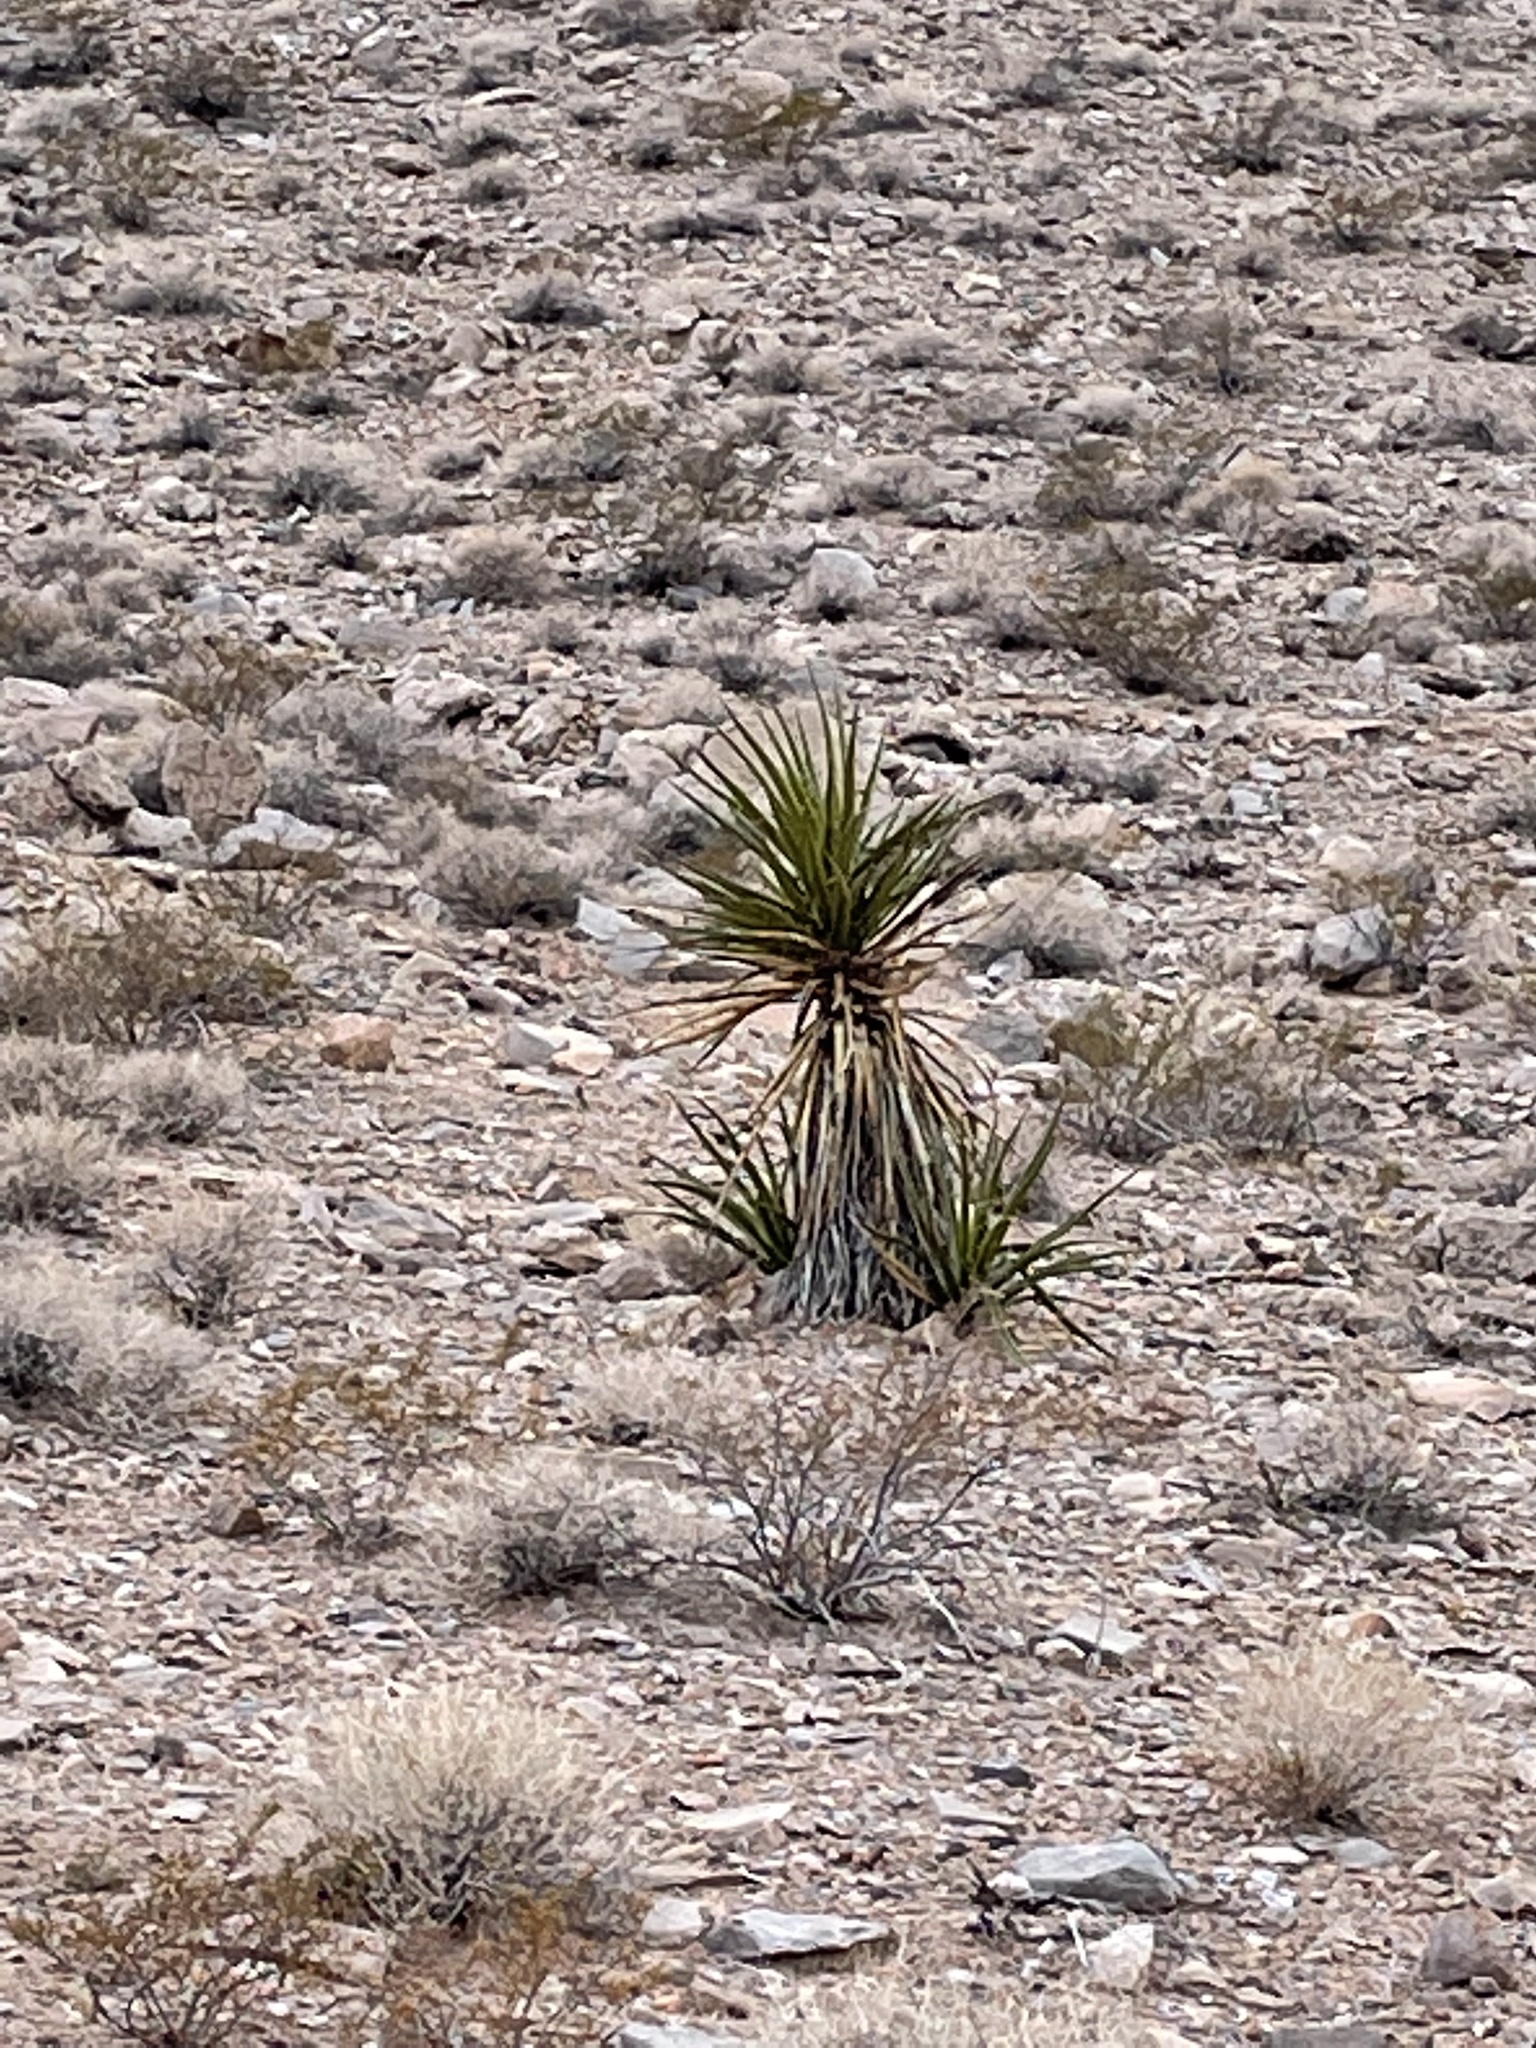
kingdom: Plantae
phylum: Tracheophyta
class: Liliopsida
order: Asparagales
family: Asparagaceae
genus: Yucca
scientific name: Yucca schidigera
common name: Mojave yucca
